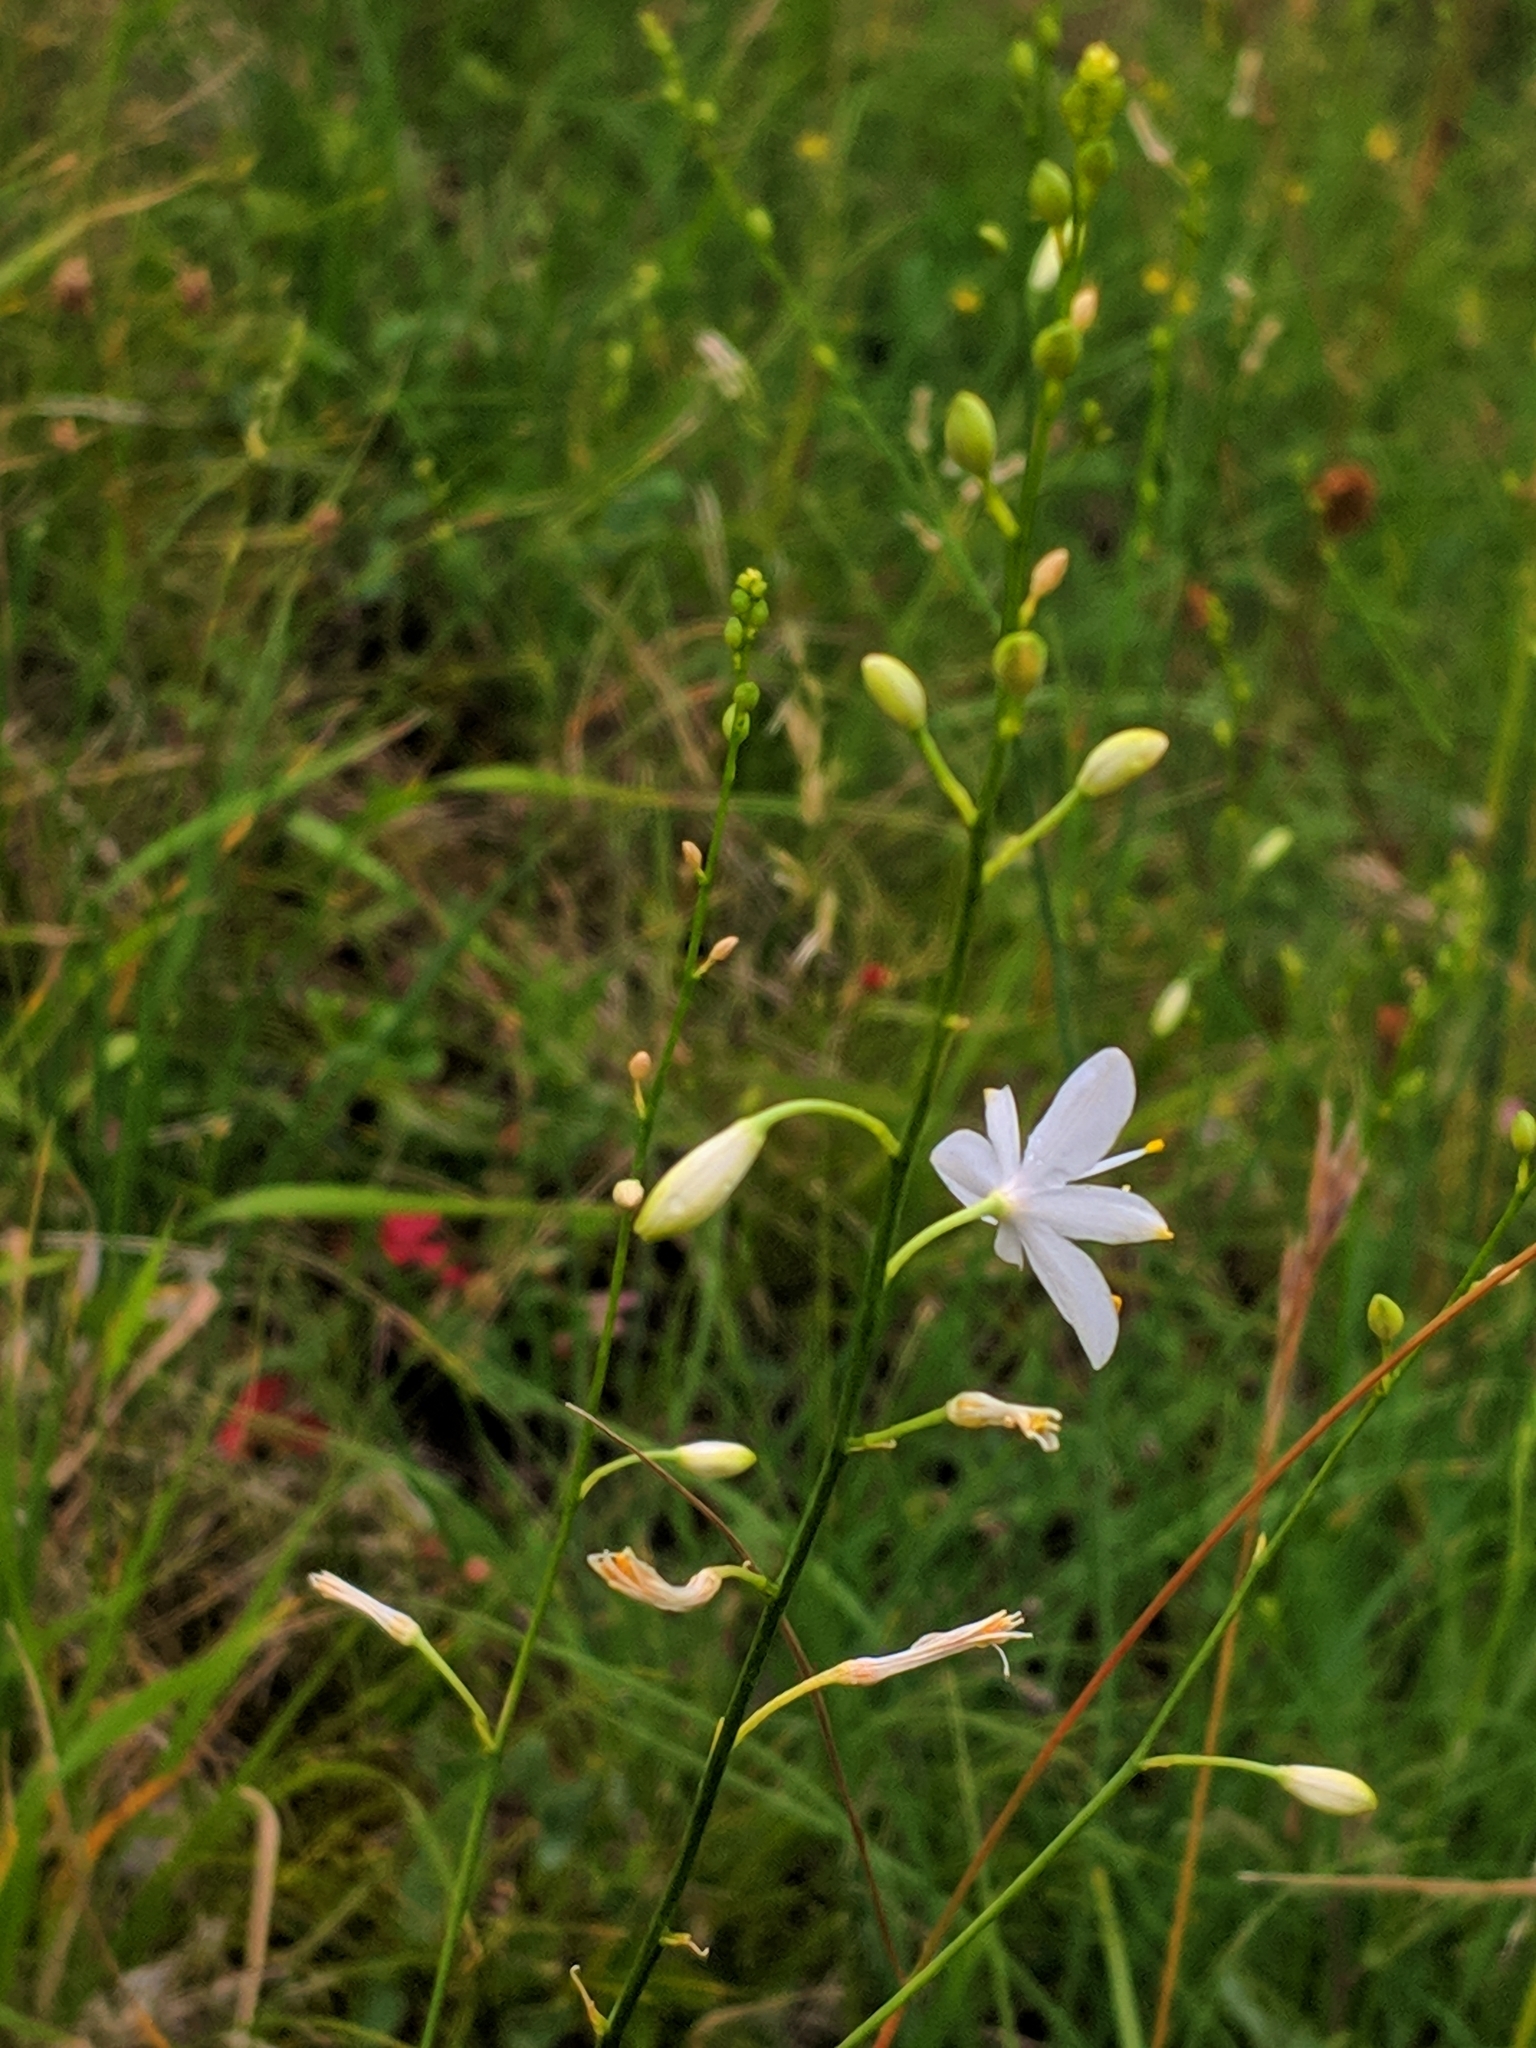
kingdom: Plantae
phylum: Tracheophyta
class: Liliopsida
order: Asparagales
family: Asparagaceae
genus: Anthericum
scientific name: Anthericum ramosum
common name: Branched st. bernard's-lily
